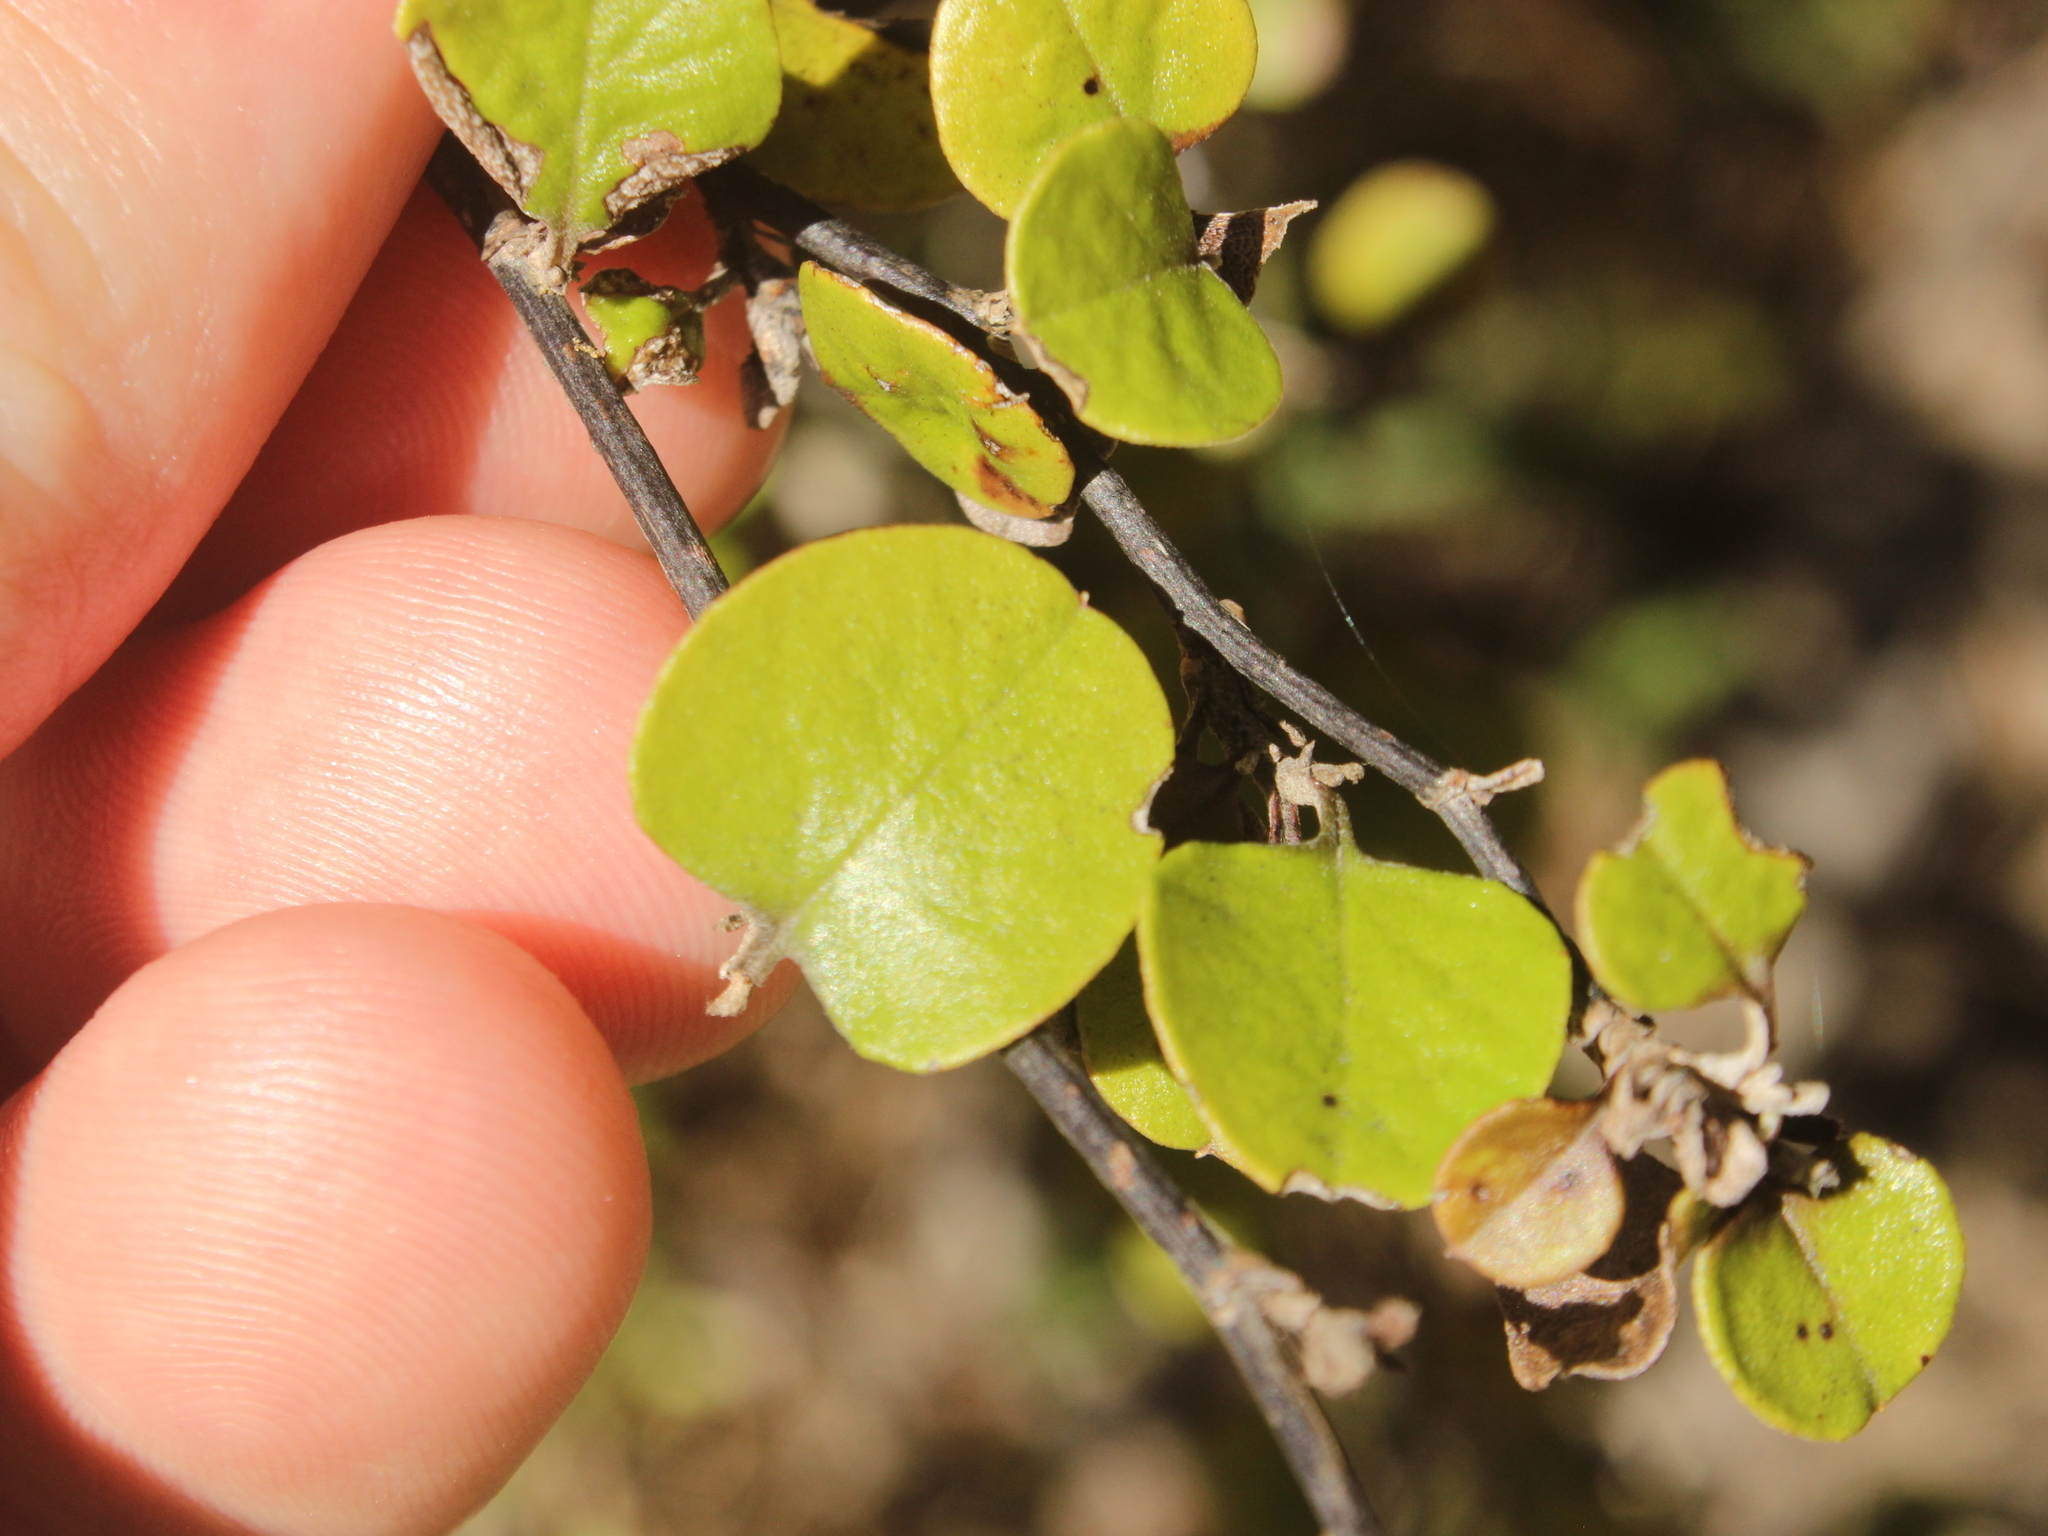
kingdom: Plantae
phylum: Tracheophyta
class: Magnoliopsida
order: Asterales
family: Asteraceae
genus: Ozothamnus
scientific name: Ozothamnus glomeratus
